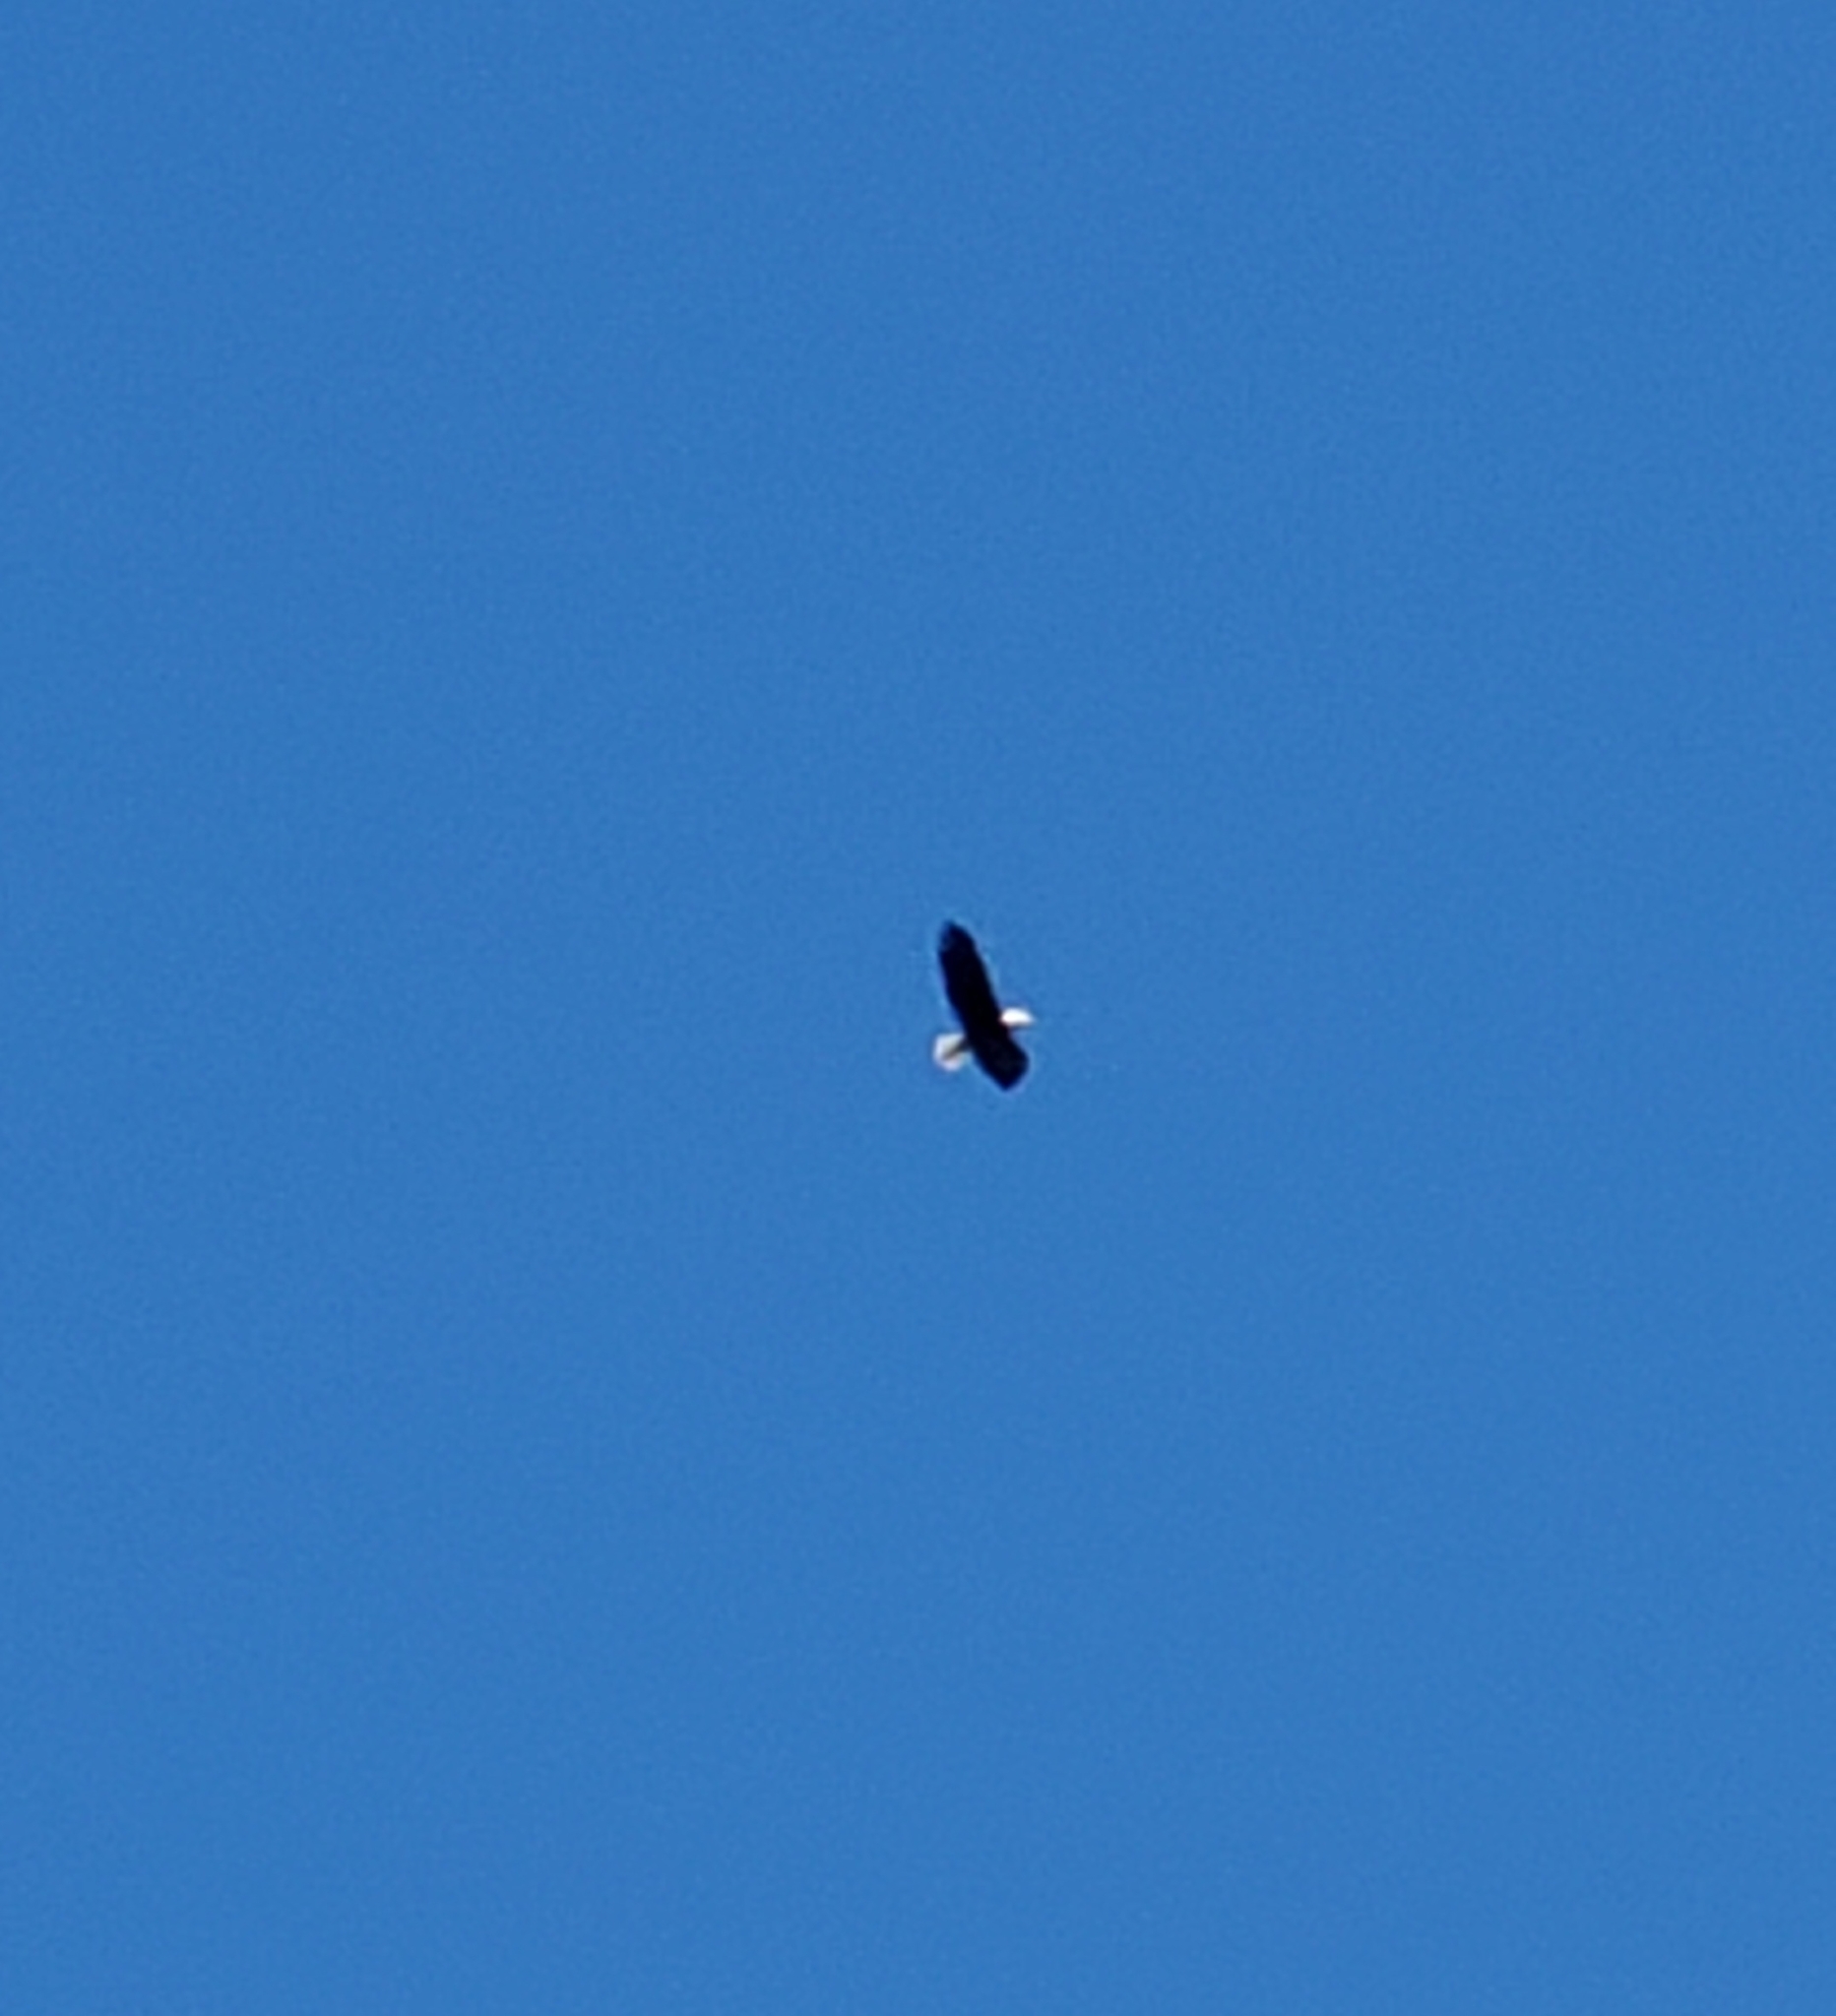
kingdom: Animalia
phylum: Chordata
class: Aves
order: Accipitriformes
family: Accipitridae
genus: Haliaeetus
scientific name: Haliaeetus leucocephalus
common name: Bald eagle
